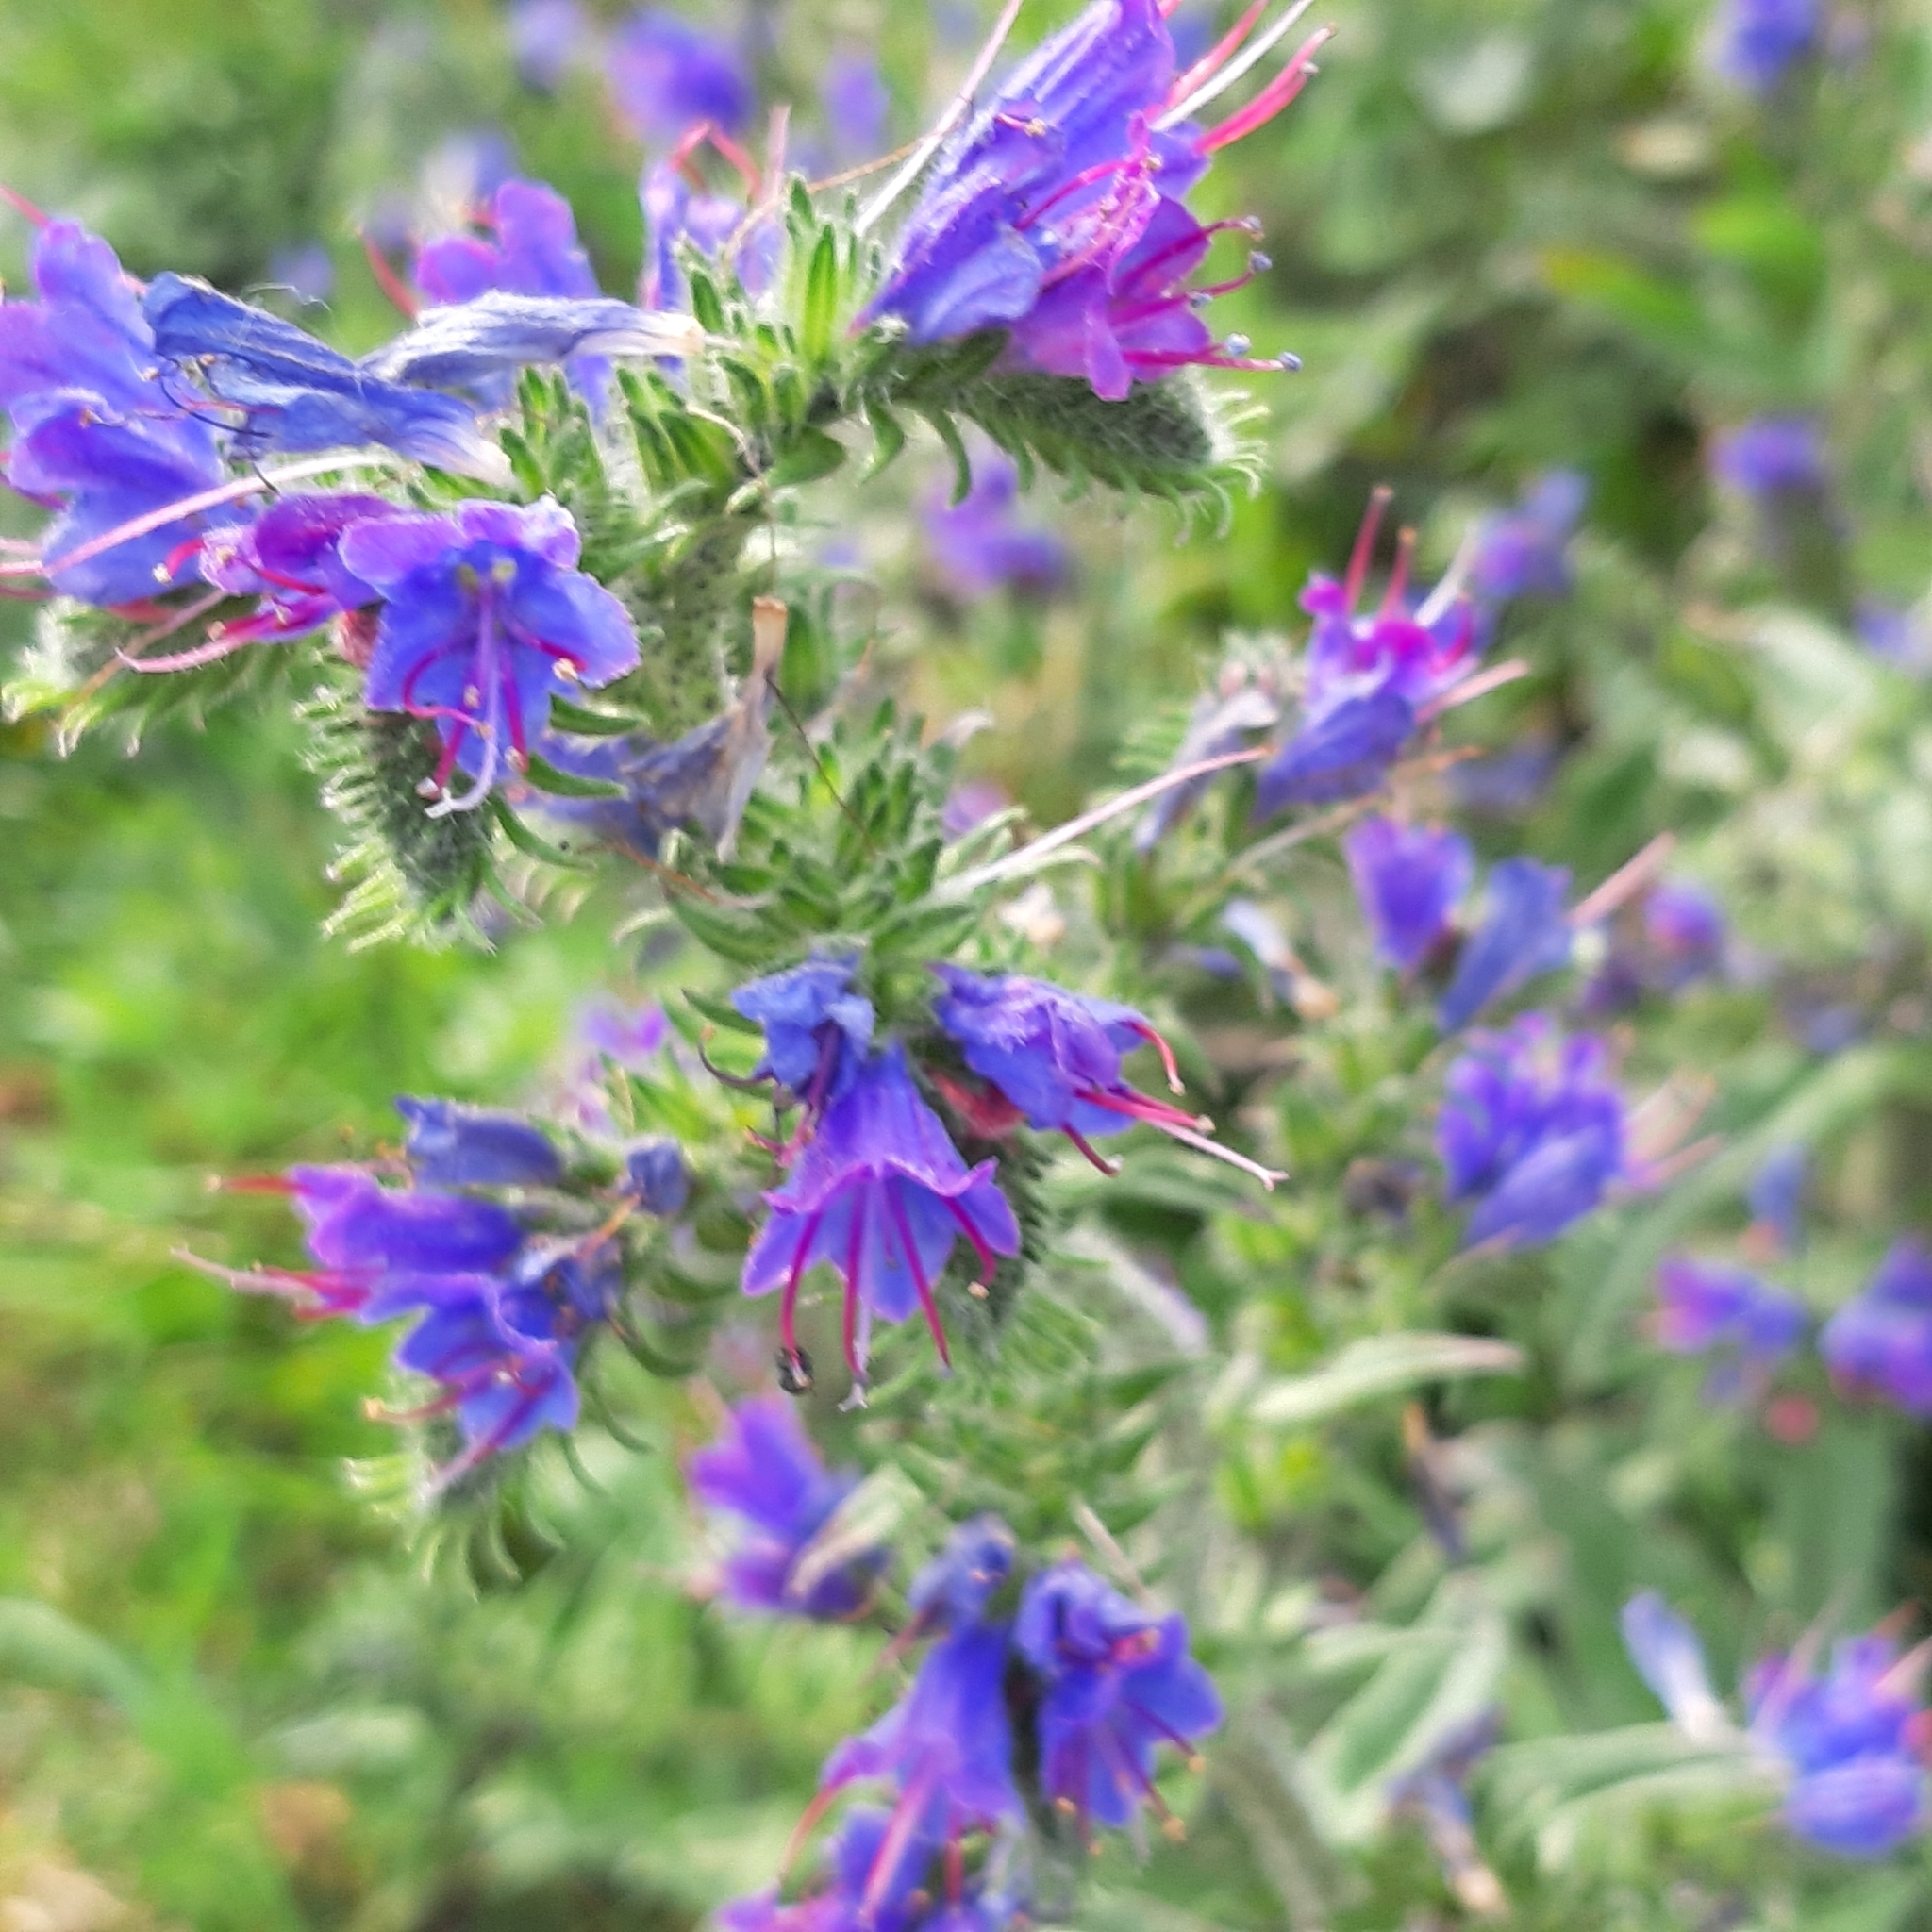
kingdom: Plantae
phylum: Tracheophyta
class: Magnoliopsida
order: Boraginales
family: Boraginaceae
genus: Echium
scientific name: Echium vulgare
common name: Common viper's bugloss
